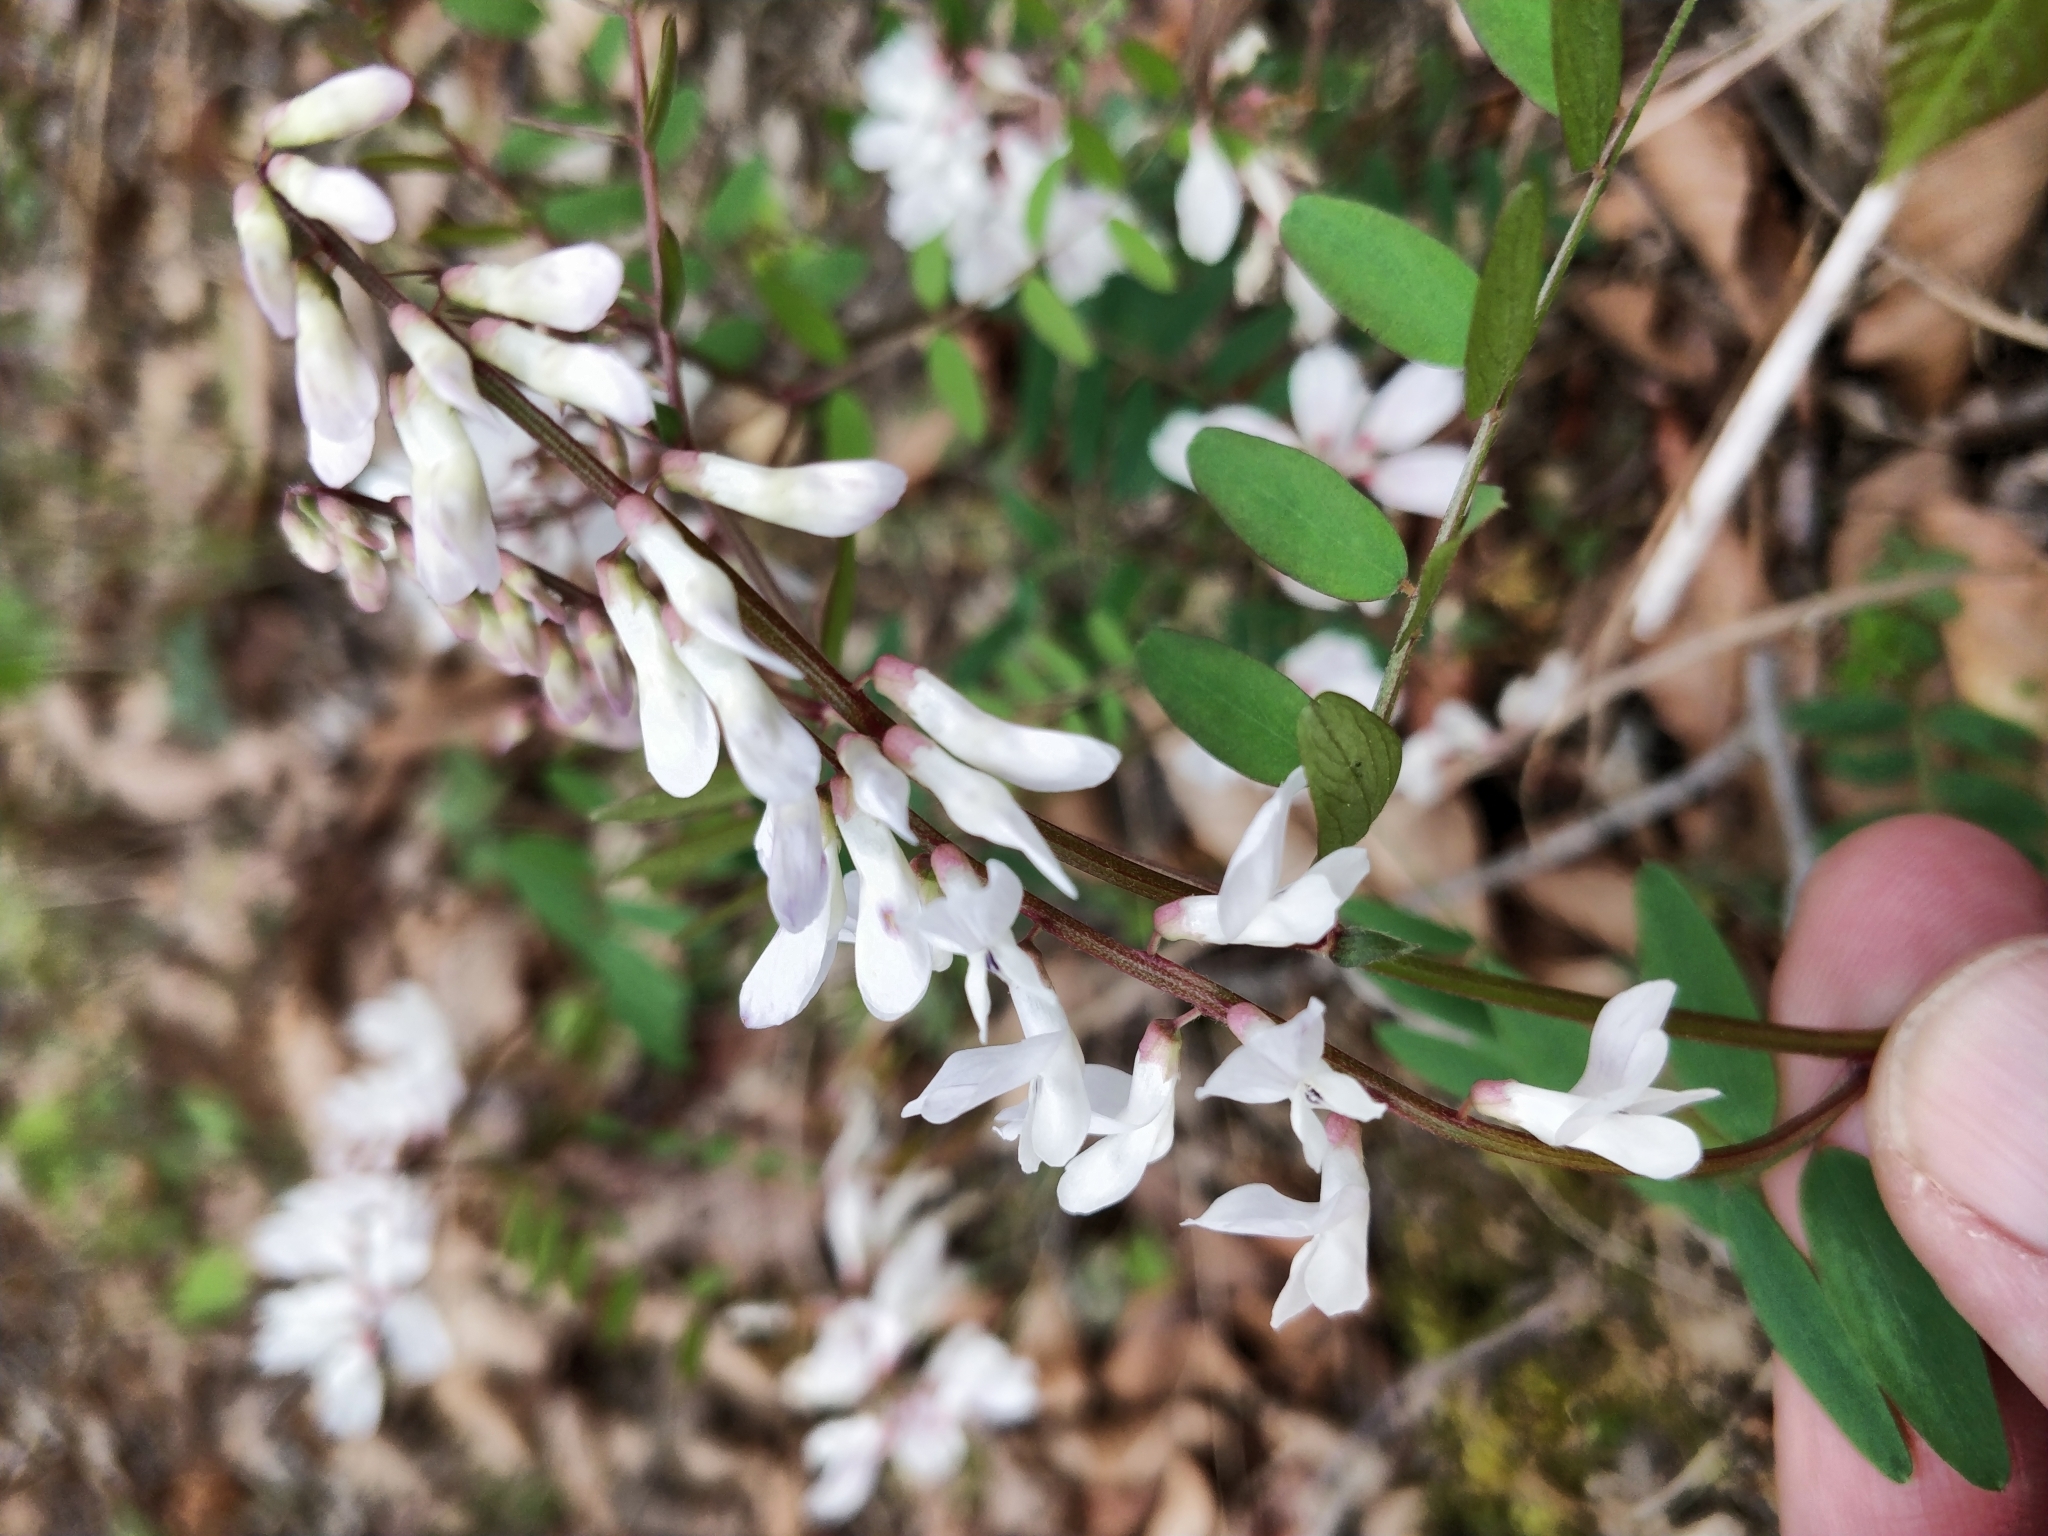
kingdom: Plantae
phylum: Tracheophyta
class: Magnoliopsida
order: Fabales
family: Fabaceae
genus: Vicia
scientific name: Vicia caroliniana
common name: Carolina vetch
